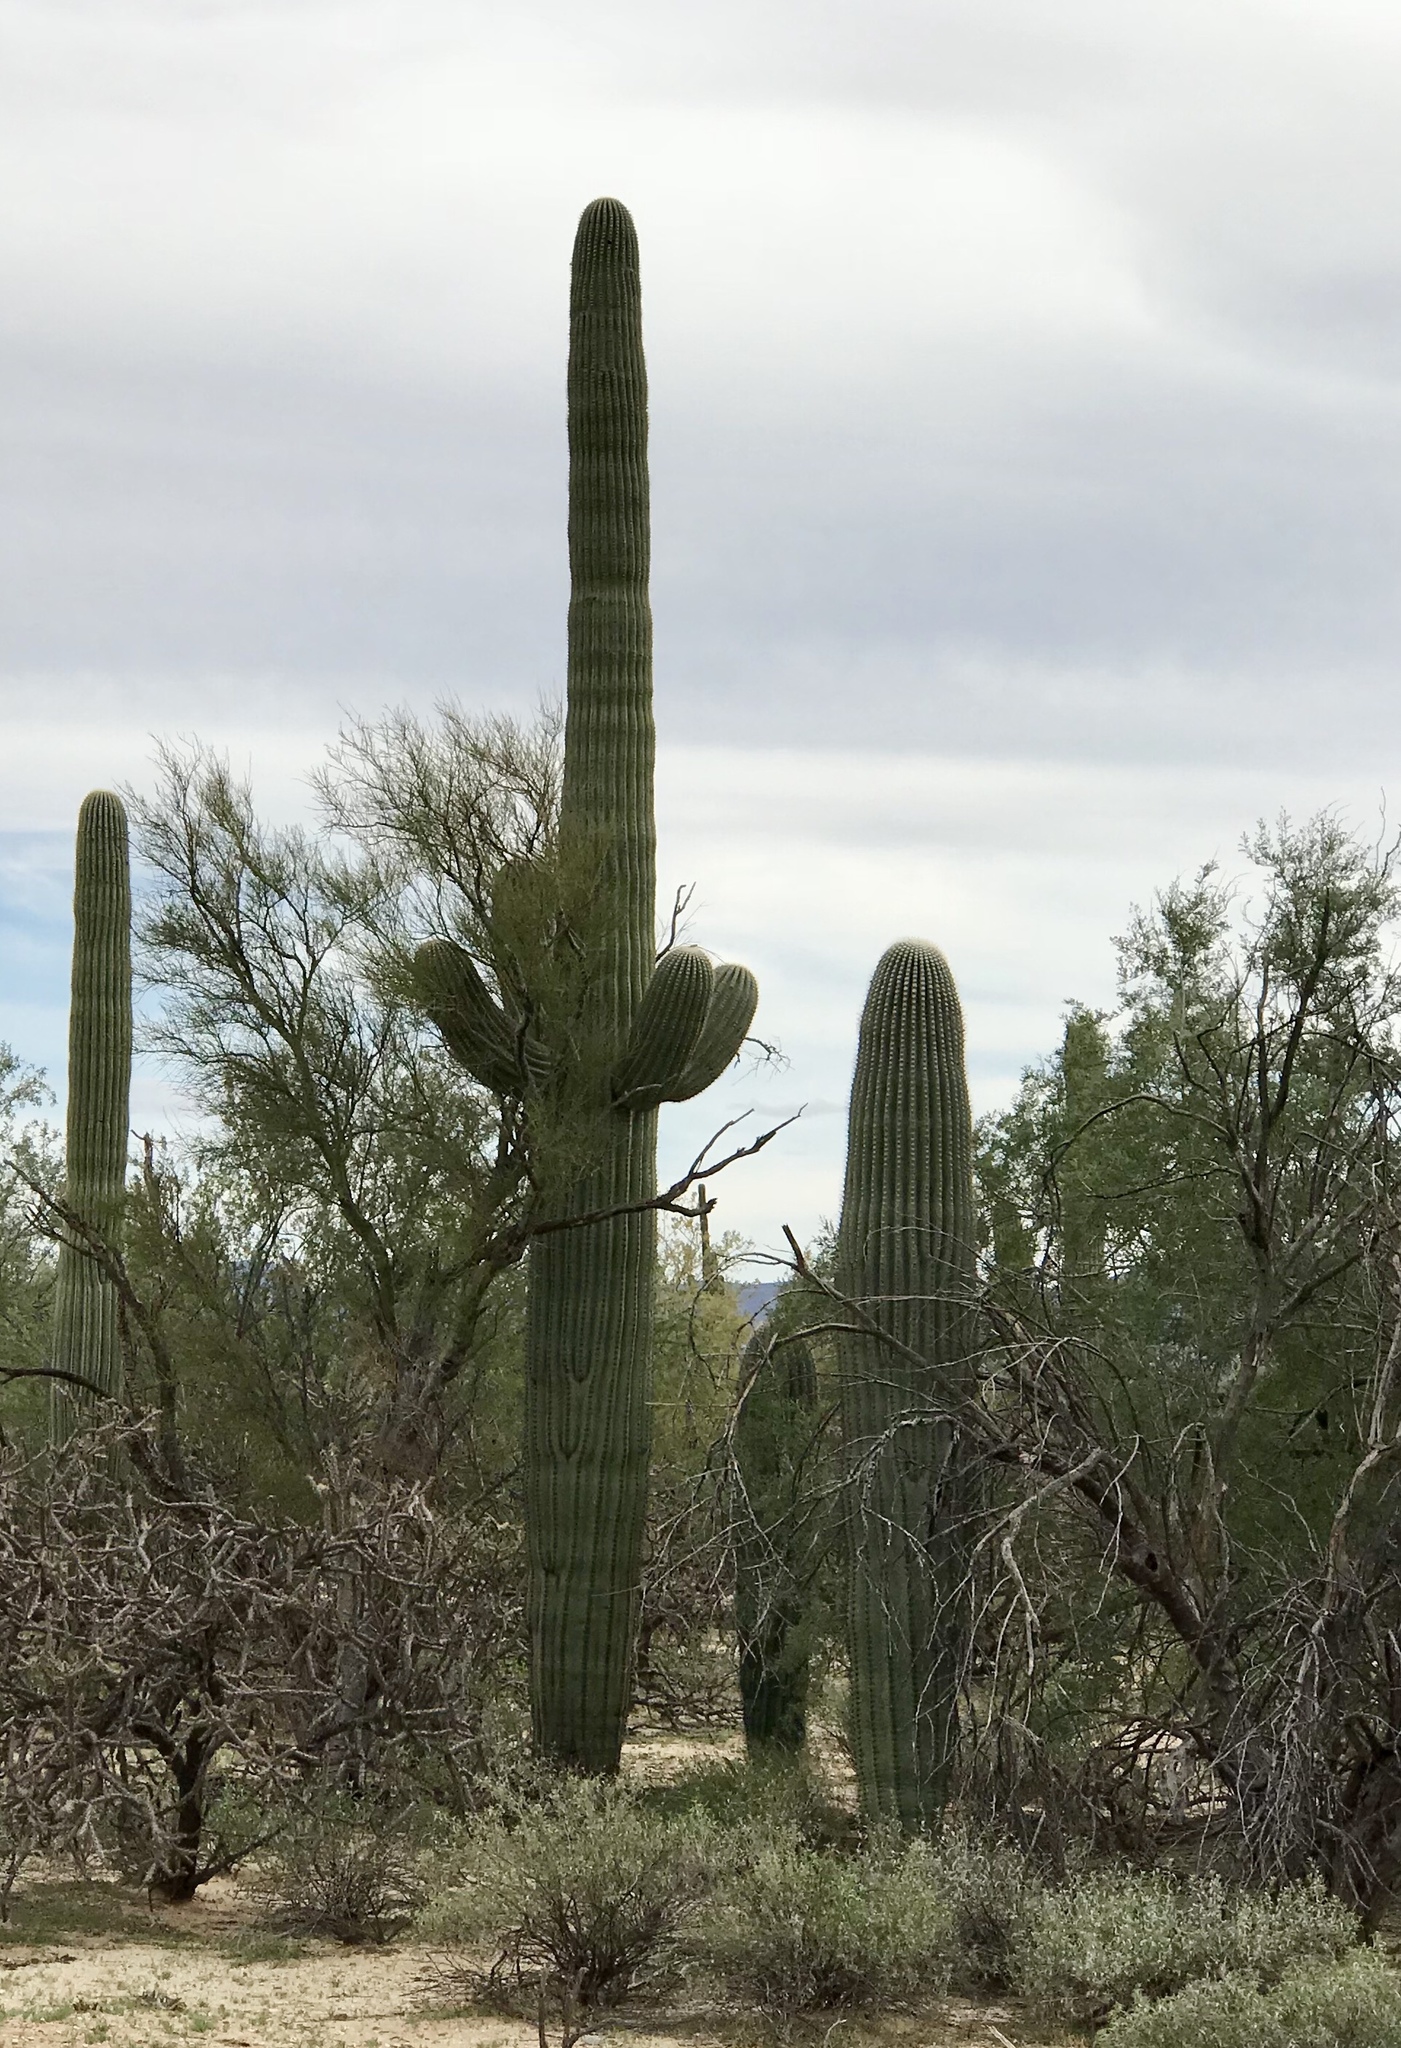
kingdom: Plantae
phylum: Tracheophyta
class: Magnoliopsida
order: Caryophyllales
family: Cactaceae
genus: Carnegiea
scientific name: Carnegiea gigantea
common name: Saguaro
